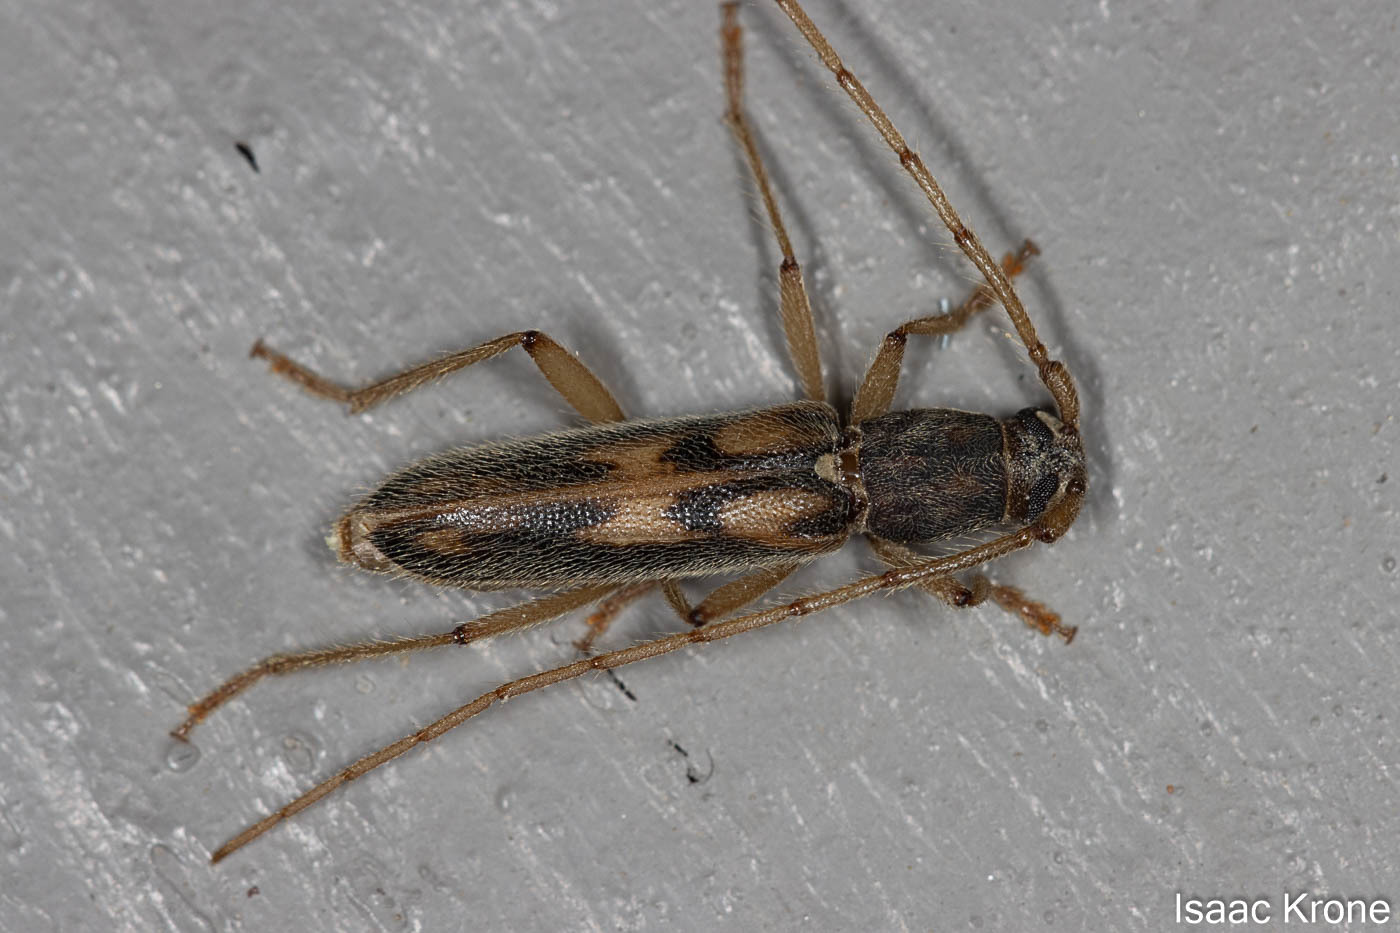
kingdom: Animalia
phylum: Arthropoda
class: Insecta
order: Coleoptera
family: Cerambycidae
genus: Achryson
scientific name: Achryson surinamum
